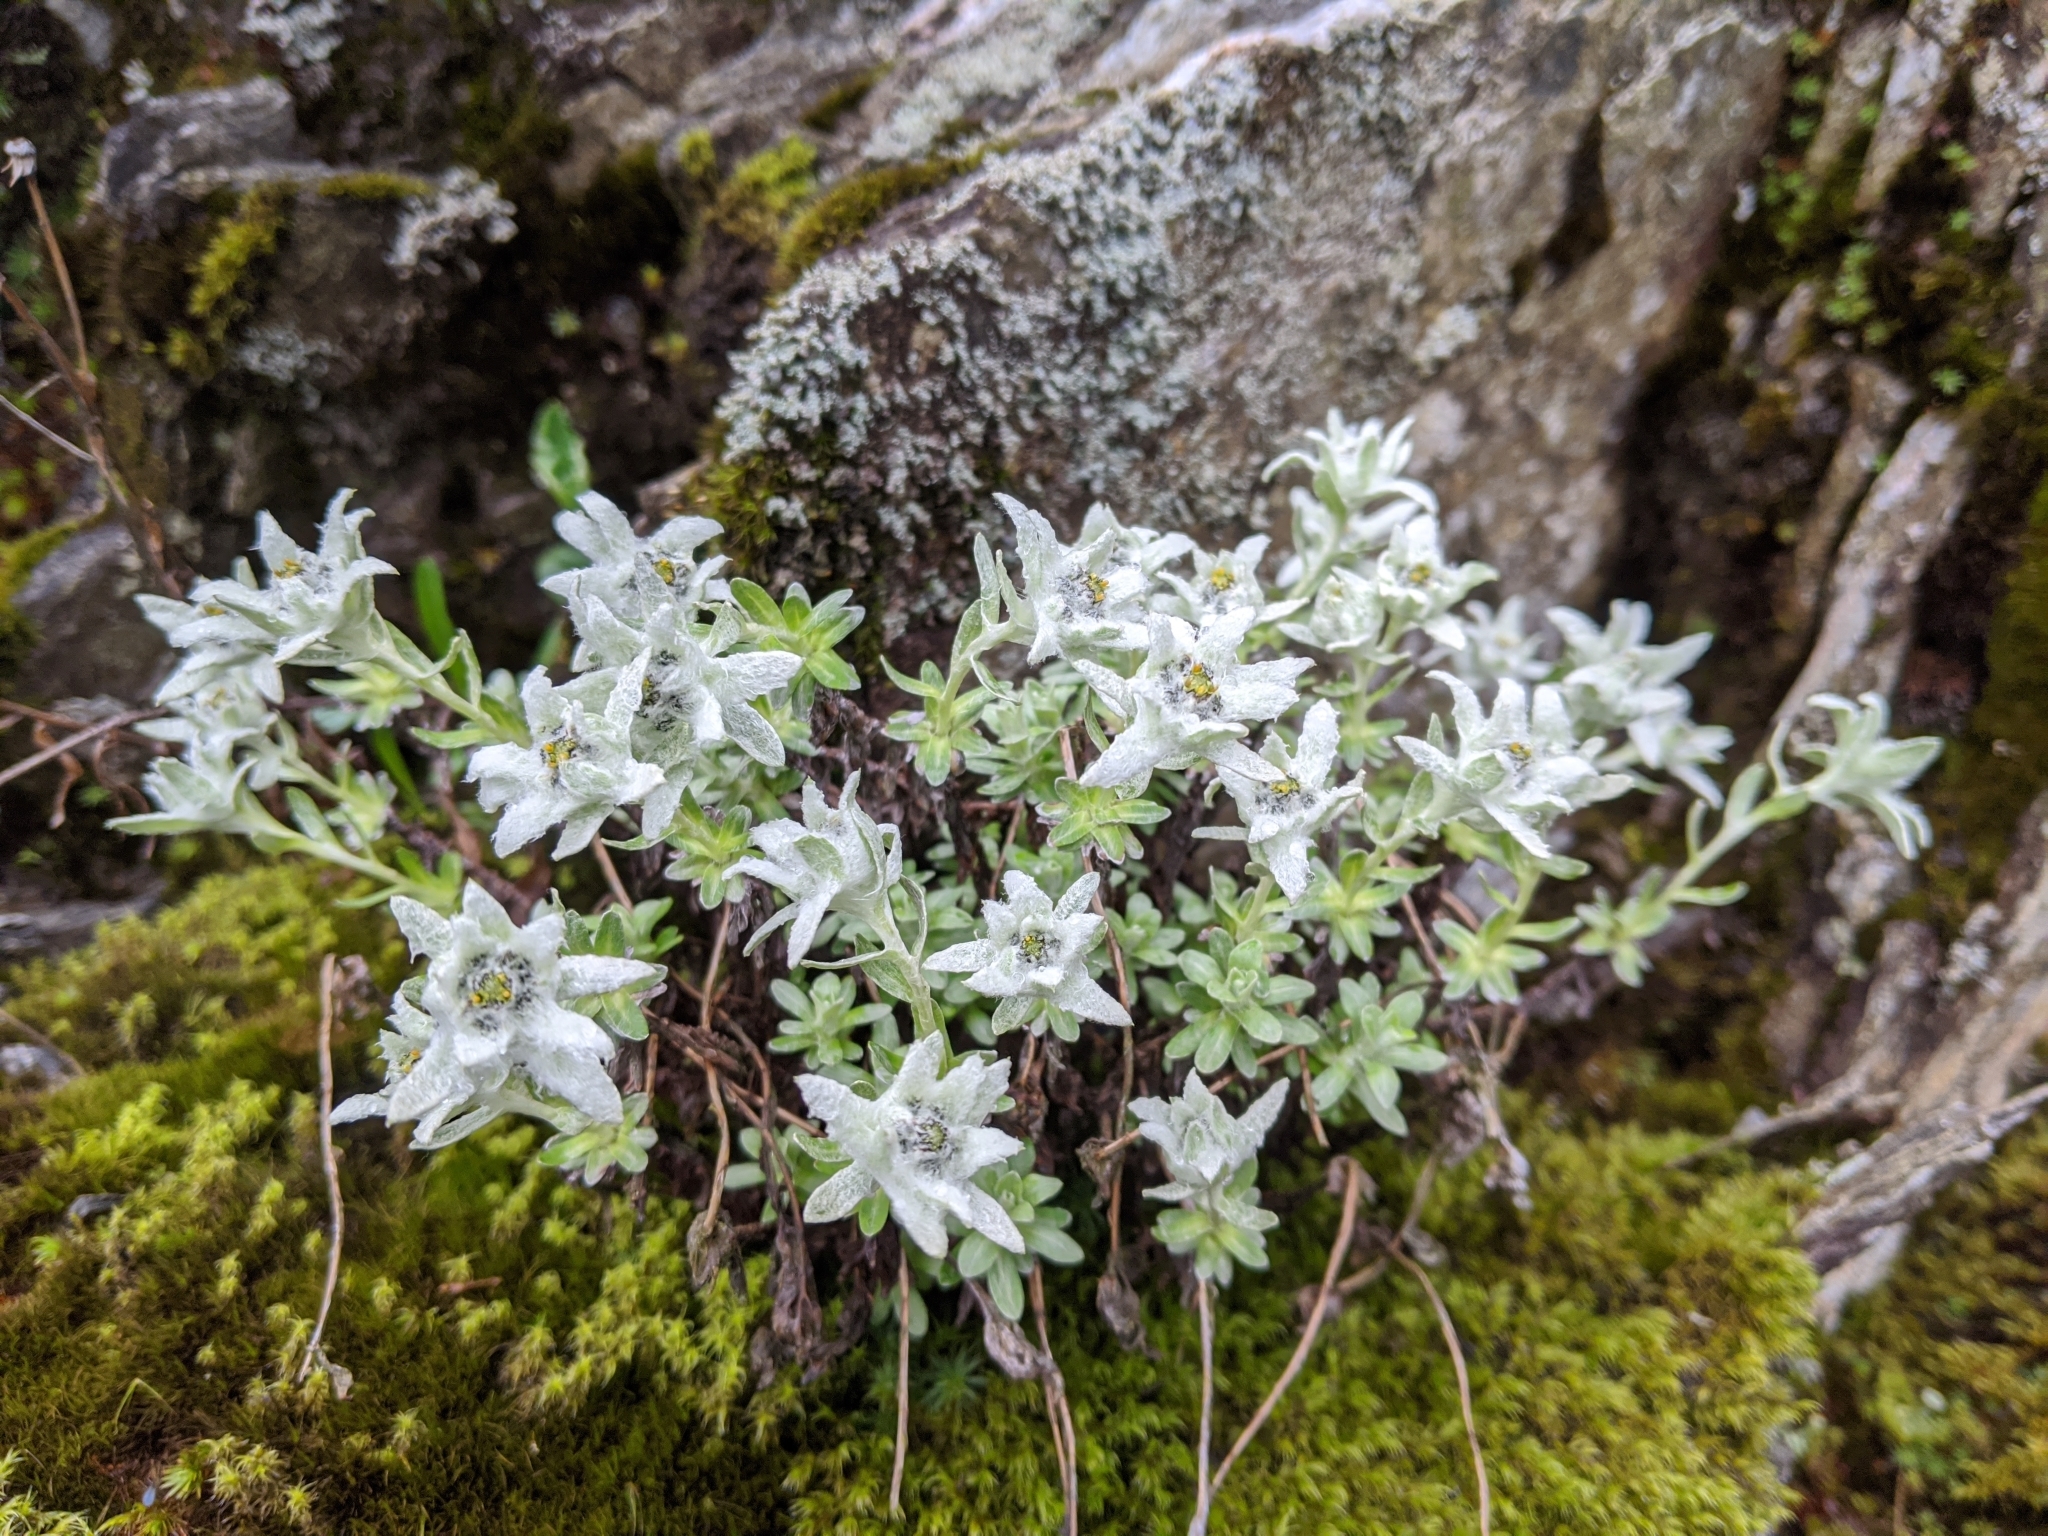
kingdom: Plantae
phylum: Tracheophyta
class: Magnoliopsida
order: Asterales
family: Asteraceae
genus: Leontopodium
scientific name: Leontopodium microphyllum
